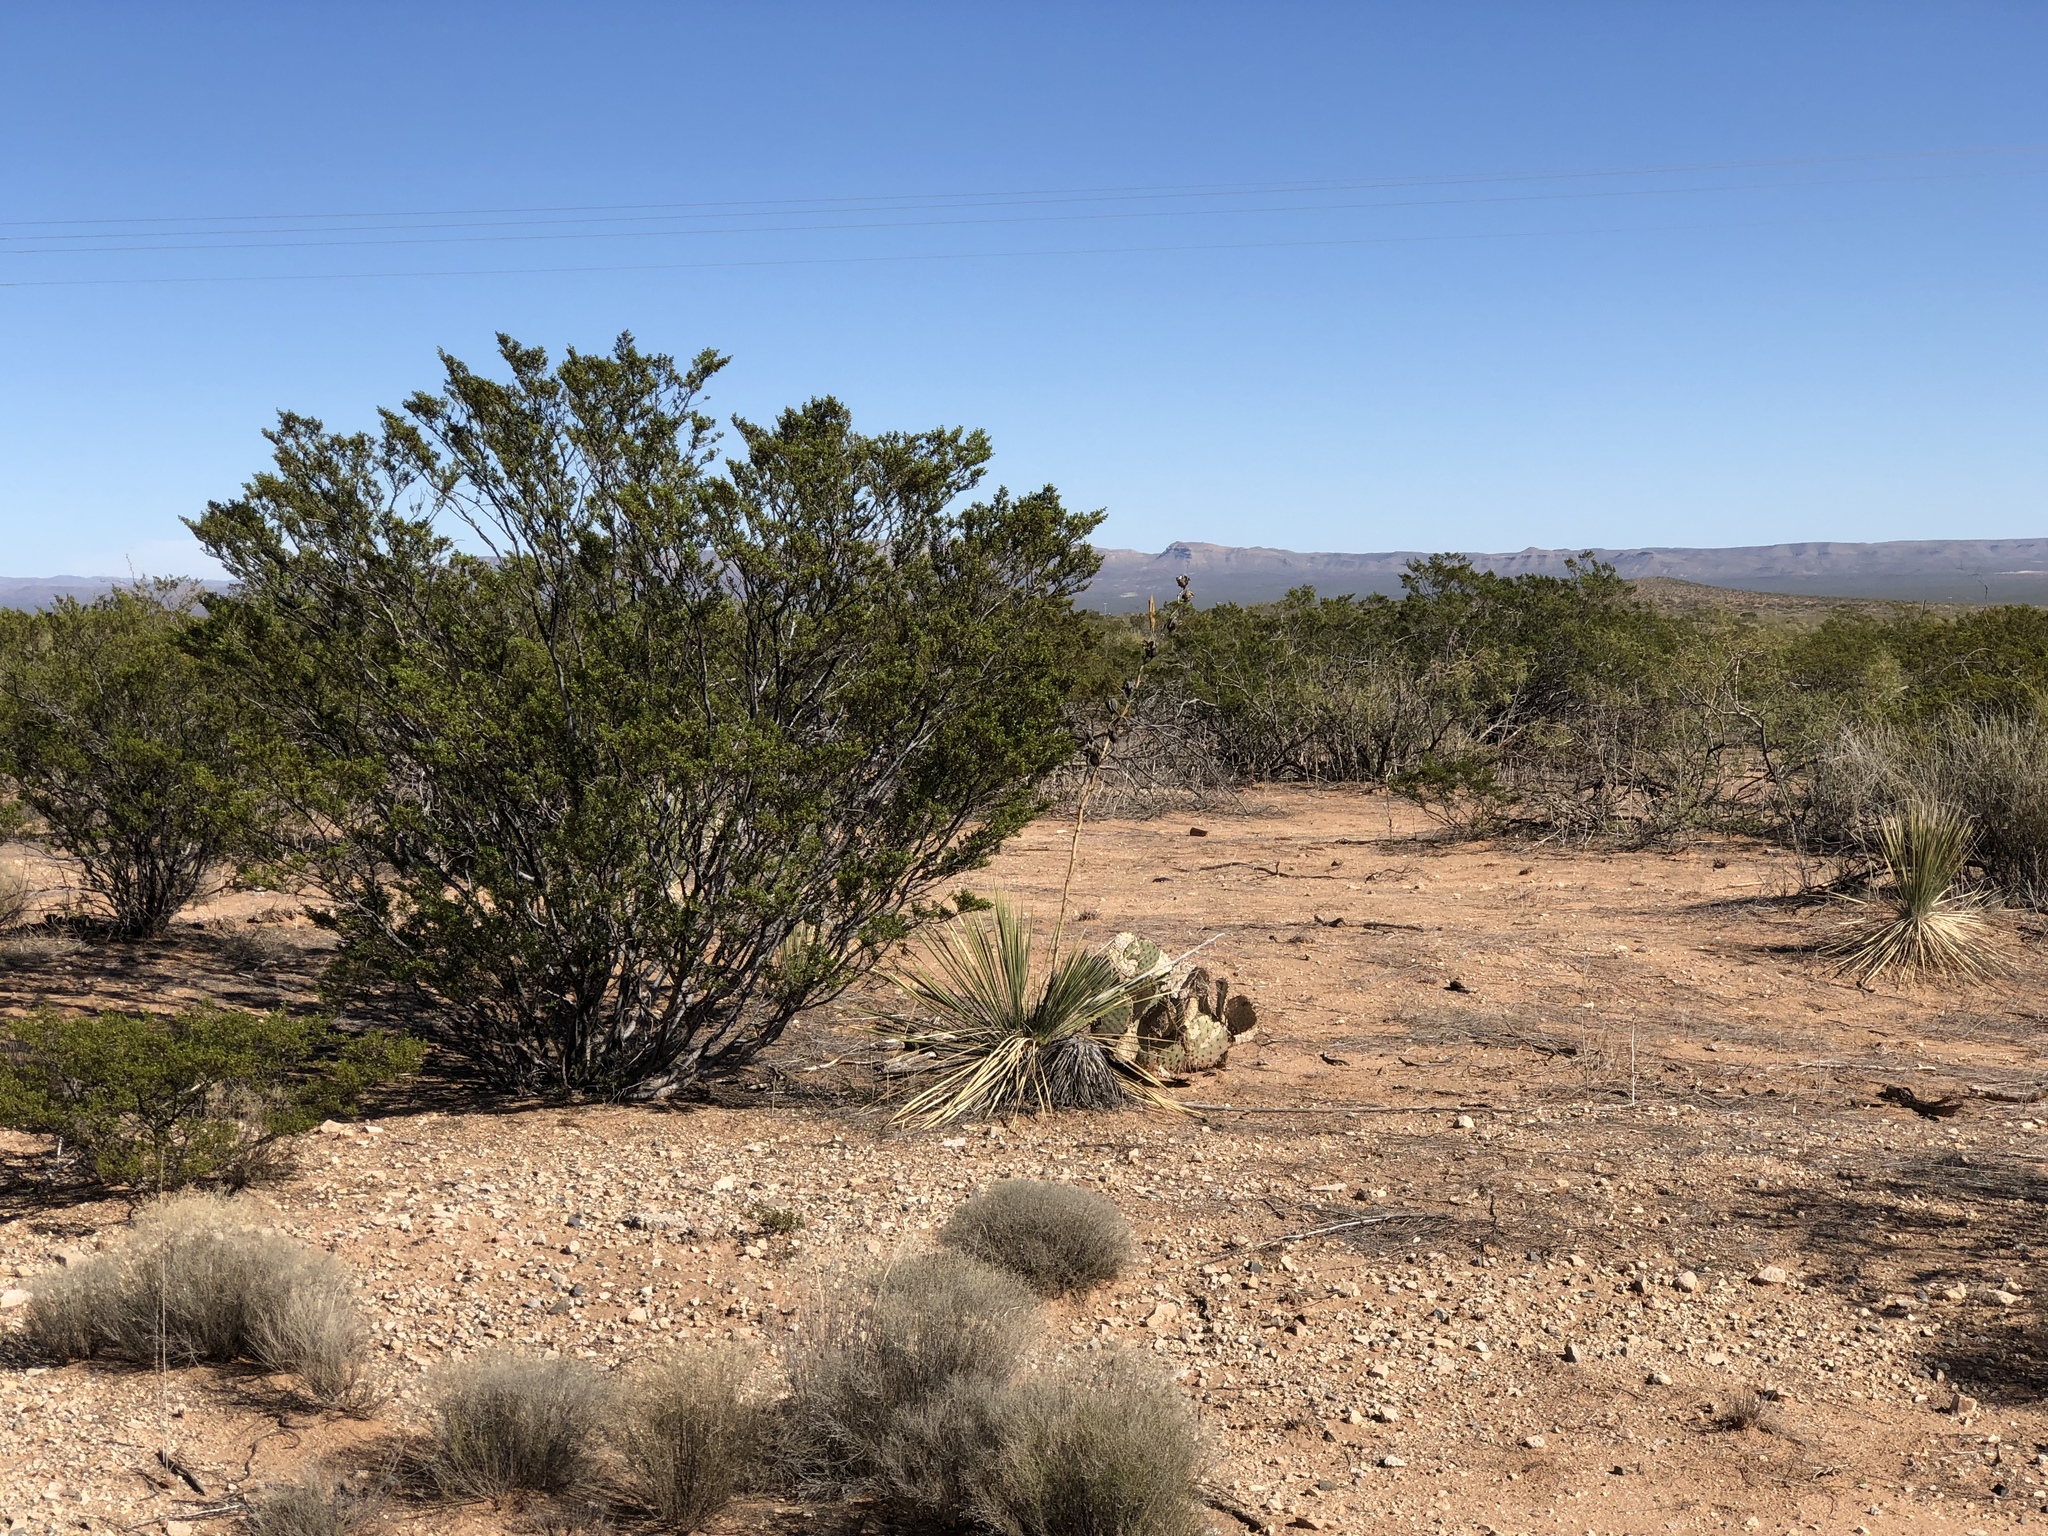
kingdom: Plantae
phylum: Tracheophyta
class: Magnoliopsida
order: Zygophyllales
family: Zygophyllaceae
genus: Larrea
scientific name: Larrea tridentata
